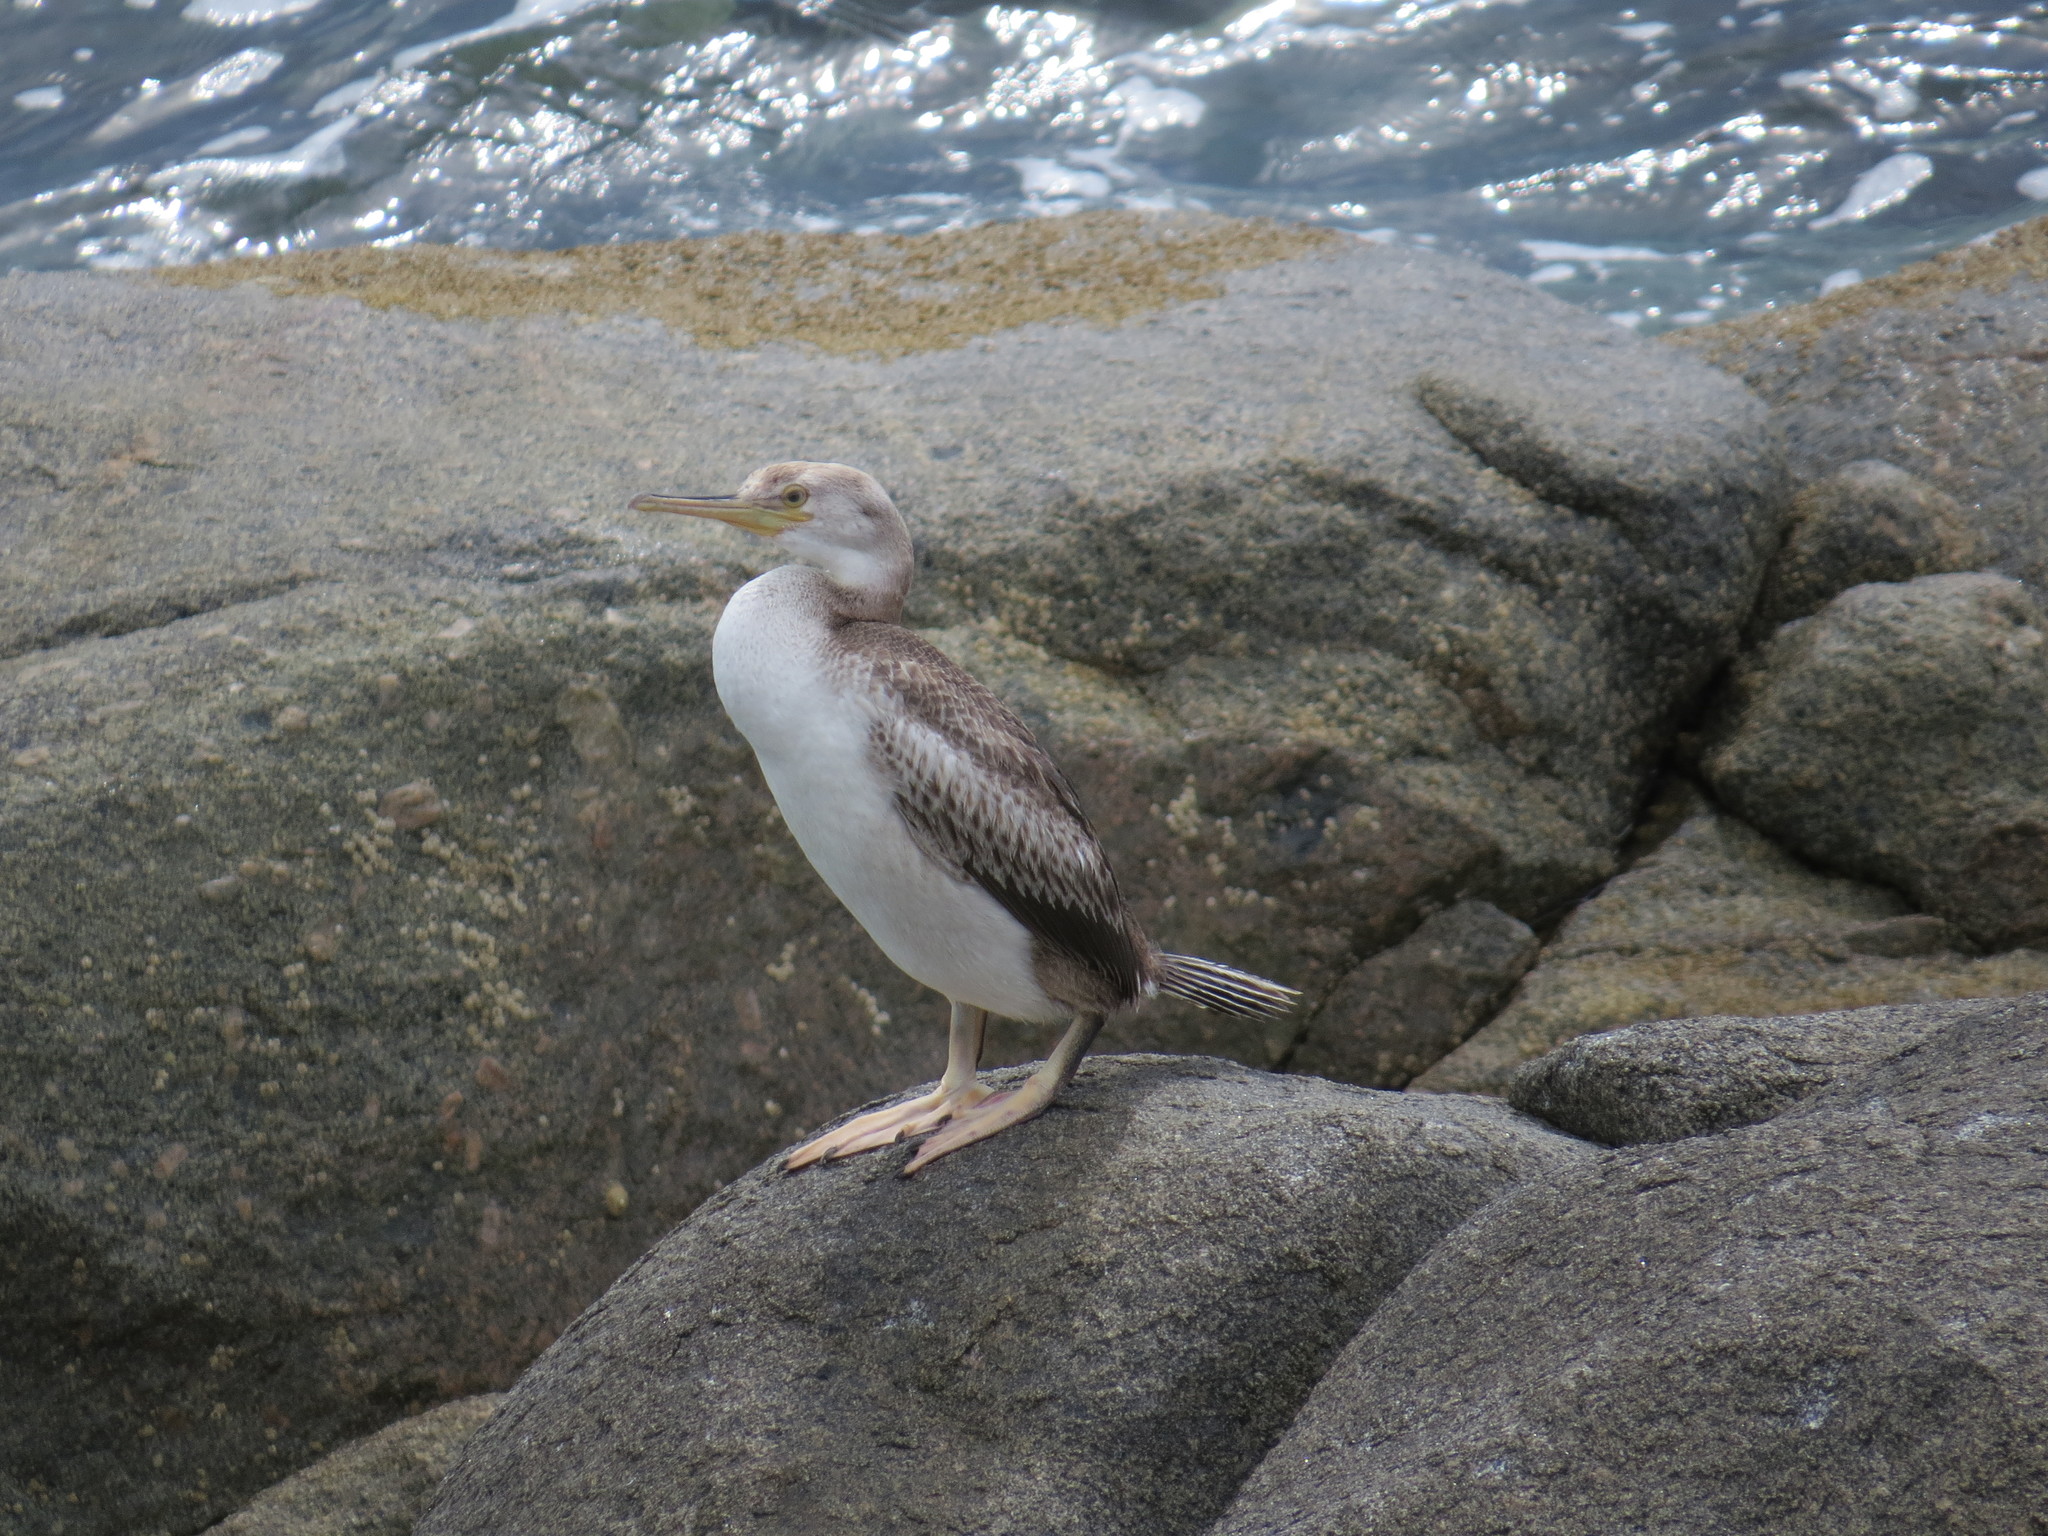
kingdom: Animalia
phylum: Chordata
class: Aves
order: Suliformes
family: Phalacrocoracidae
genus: Phalacrocorax
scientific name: Phalacrocorax aristotelis
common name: European shag
